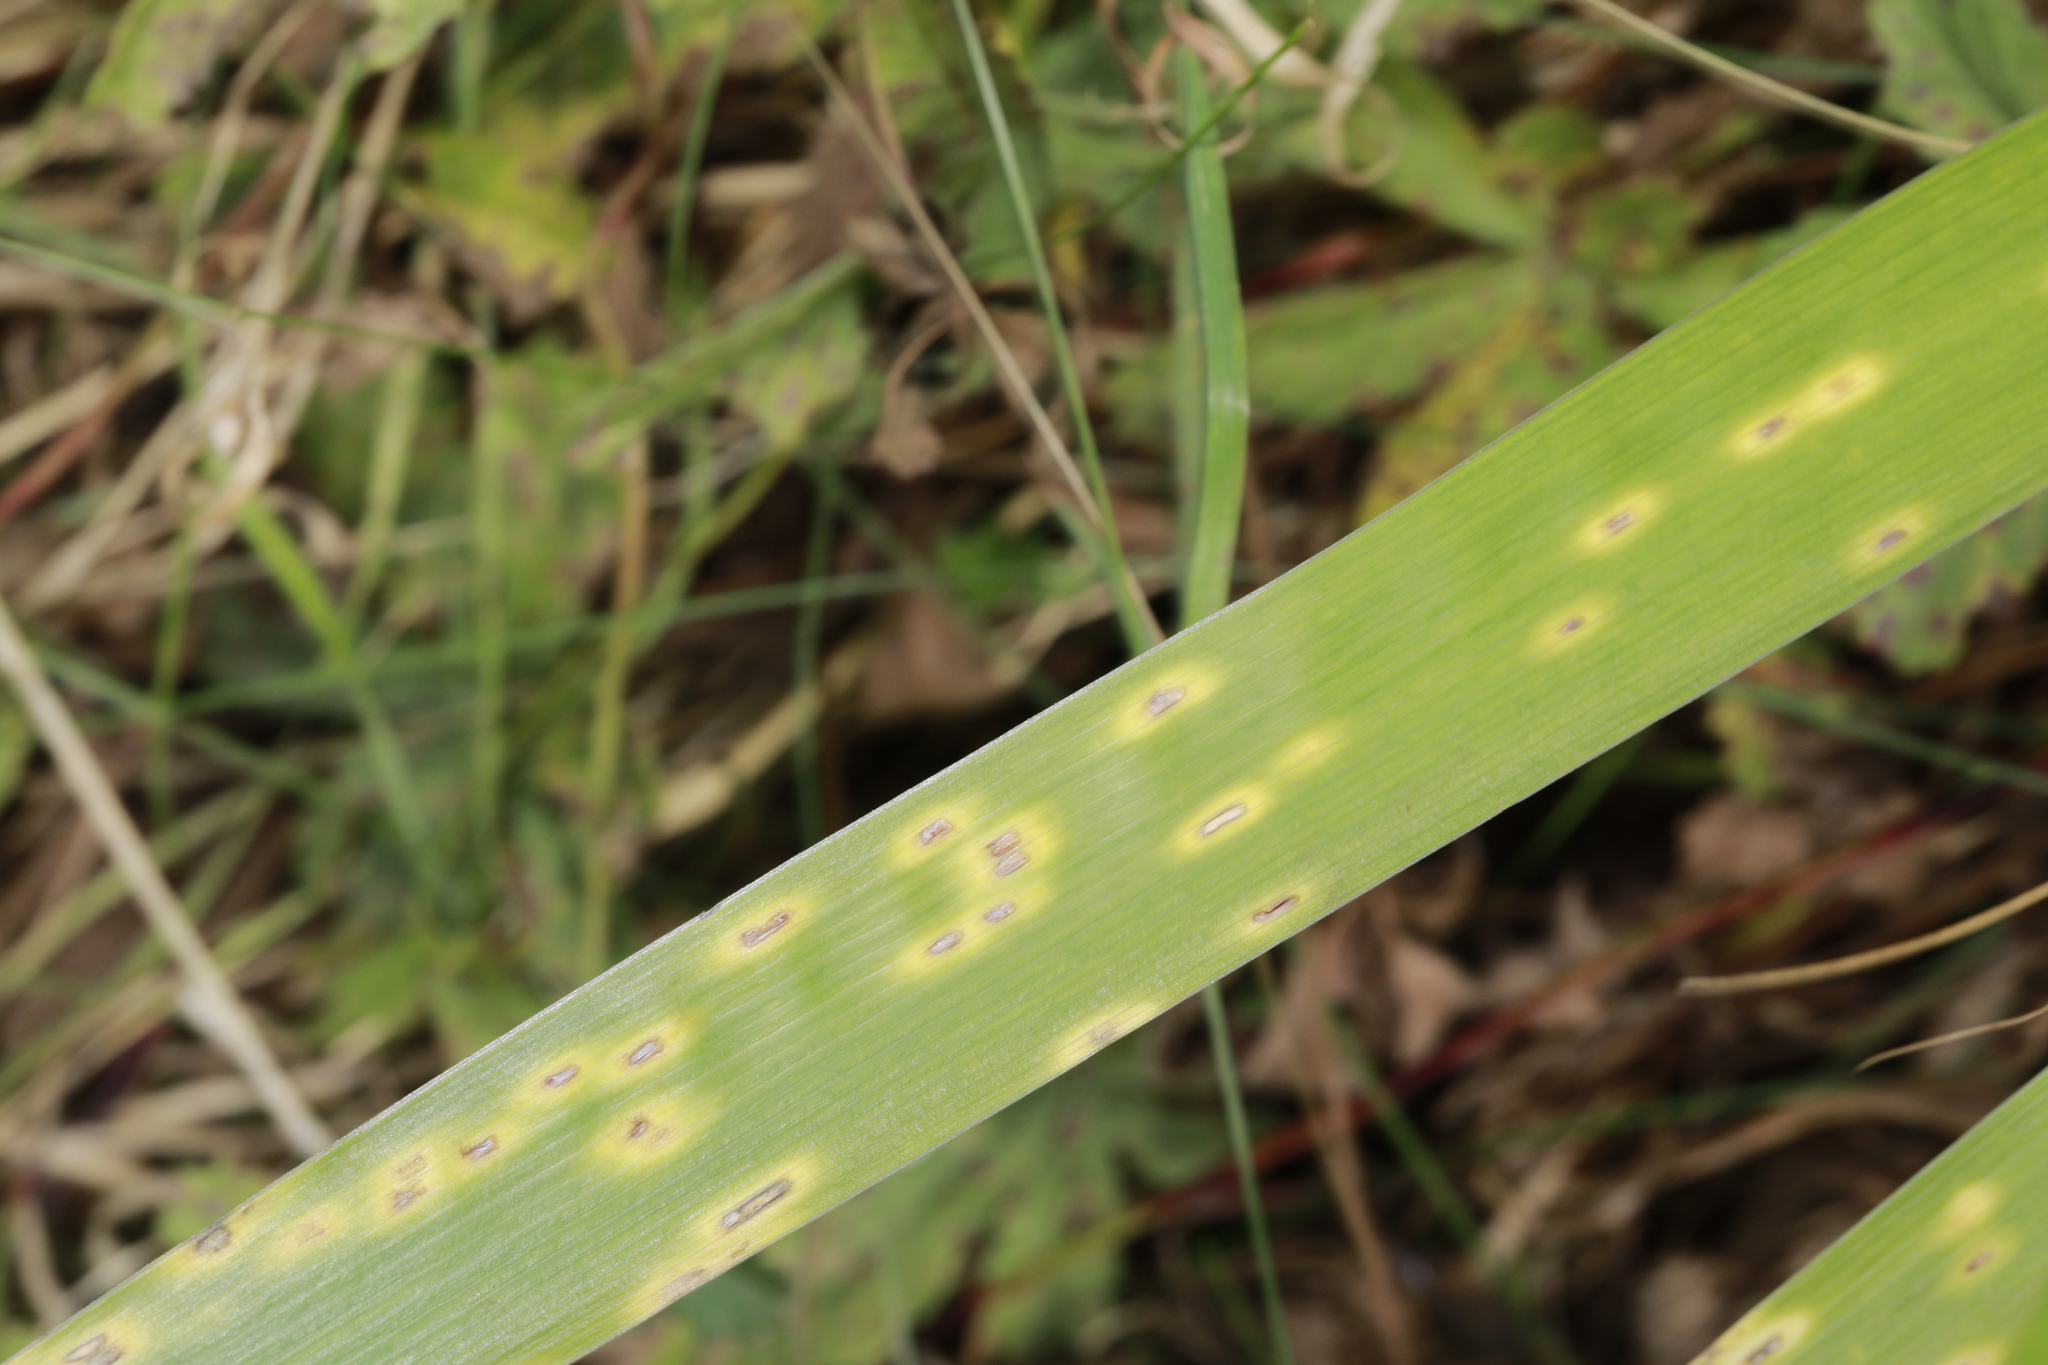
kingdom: Fungi
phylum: Basidiomycota
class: Pucciniomycetes
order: Pucciniales
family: Pucciniaceae
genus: Puccinia
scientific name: Puccinia iridis
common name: Iris rust
